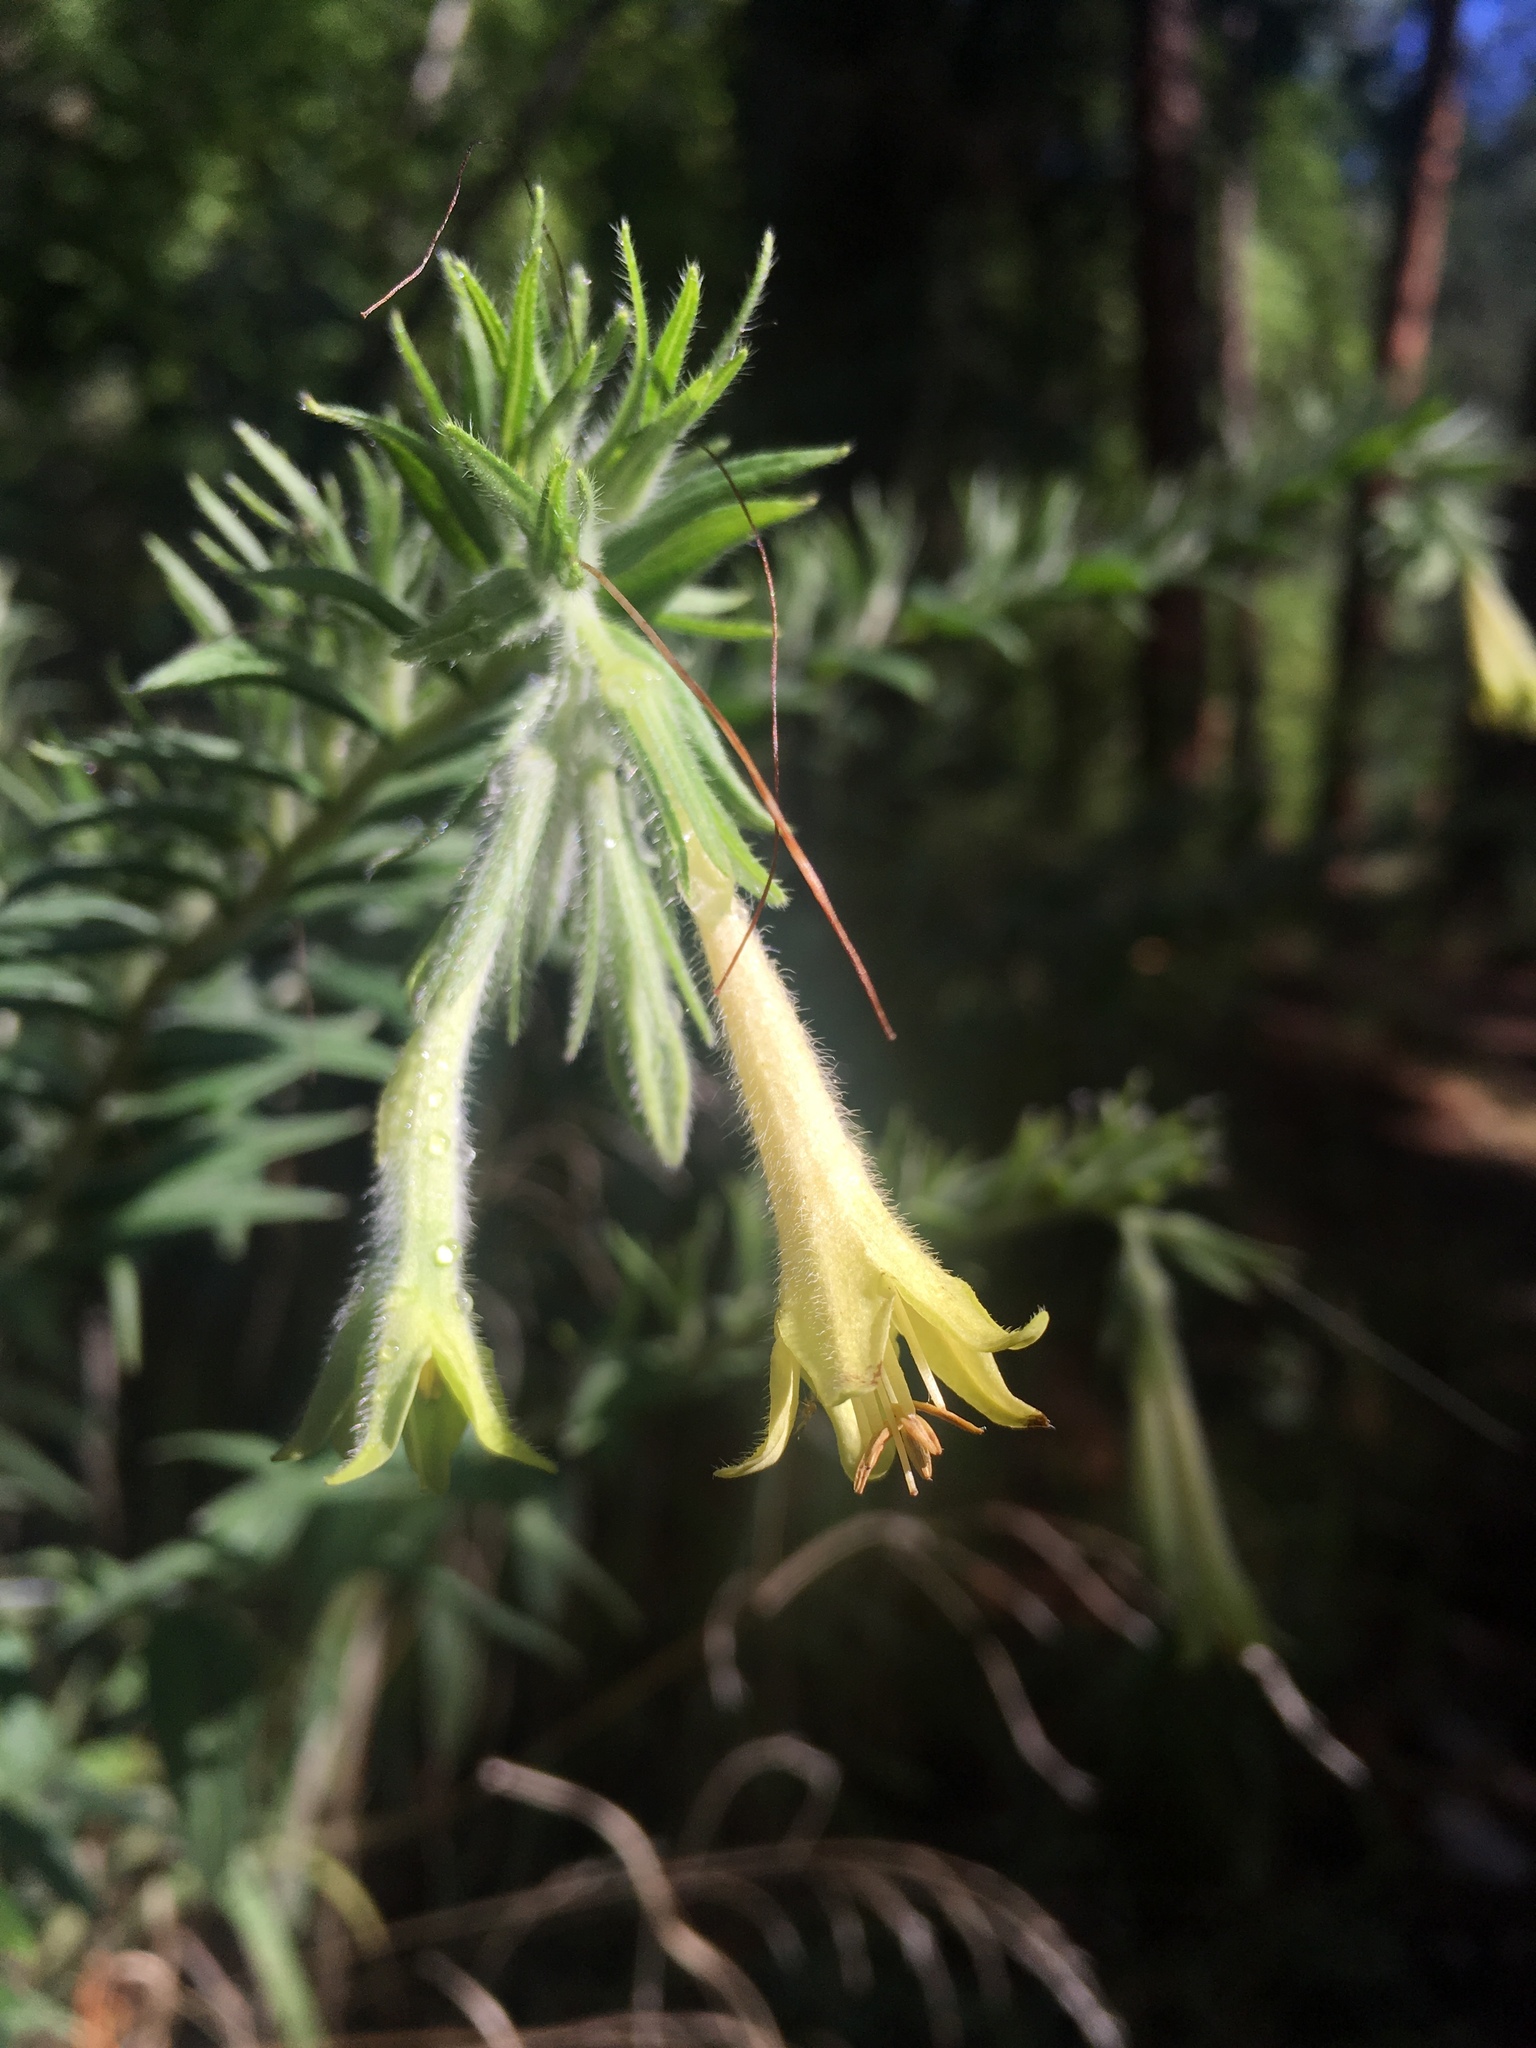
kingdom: Plantae
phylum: Tracheophyta
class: Magnoliopsida
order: Boraginales
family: Boraginaceae
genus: Lithospermum
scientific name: Lithospermum thurberi
